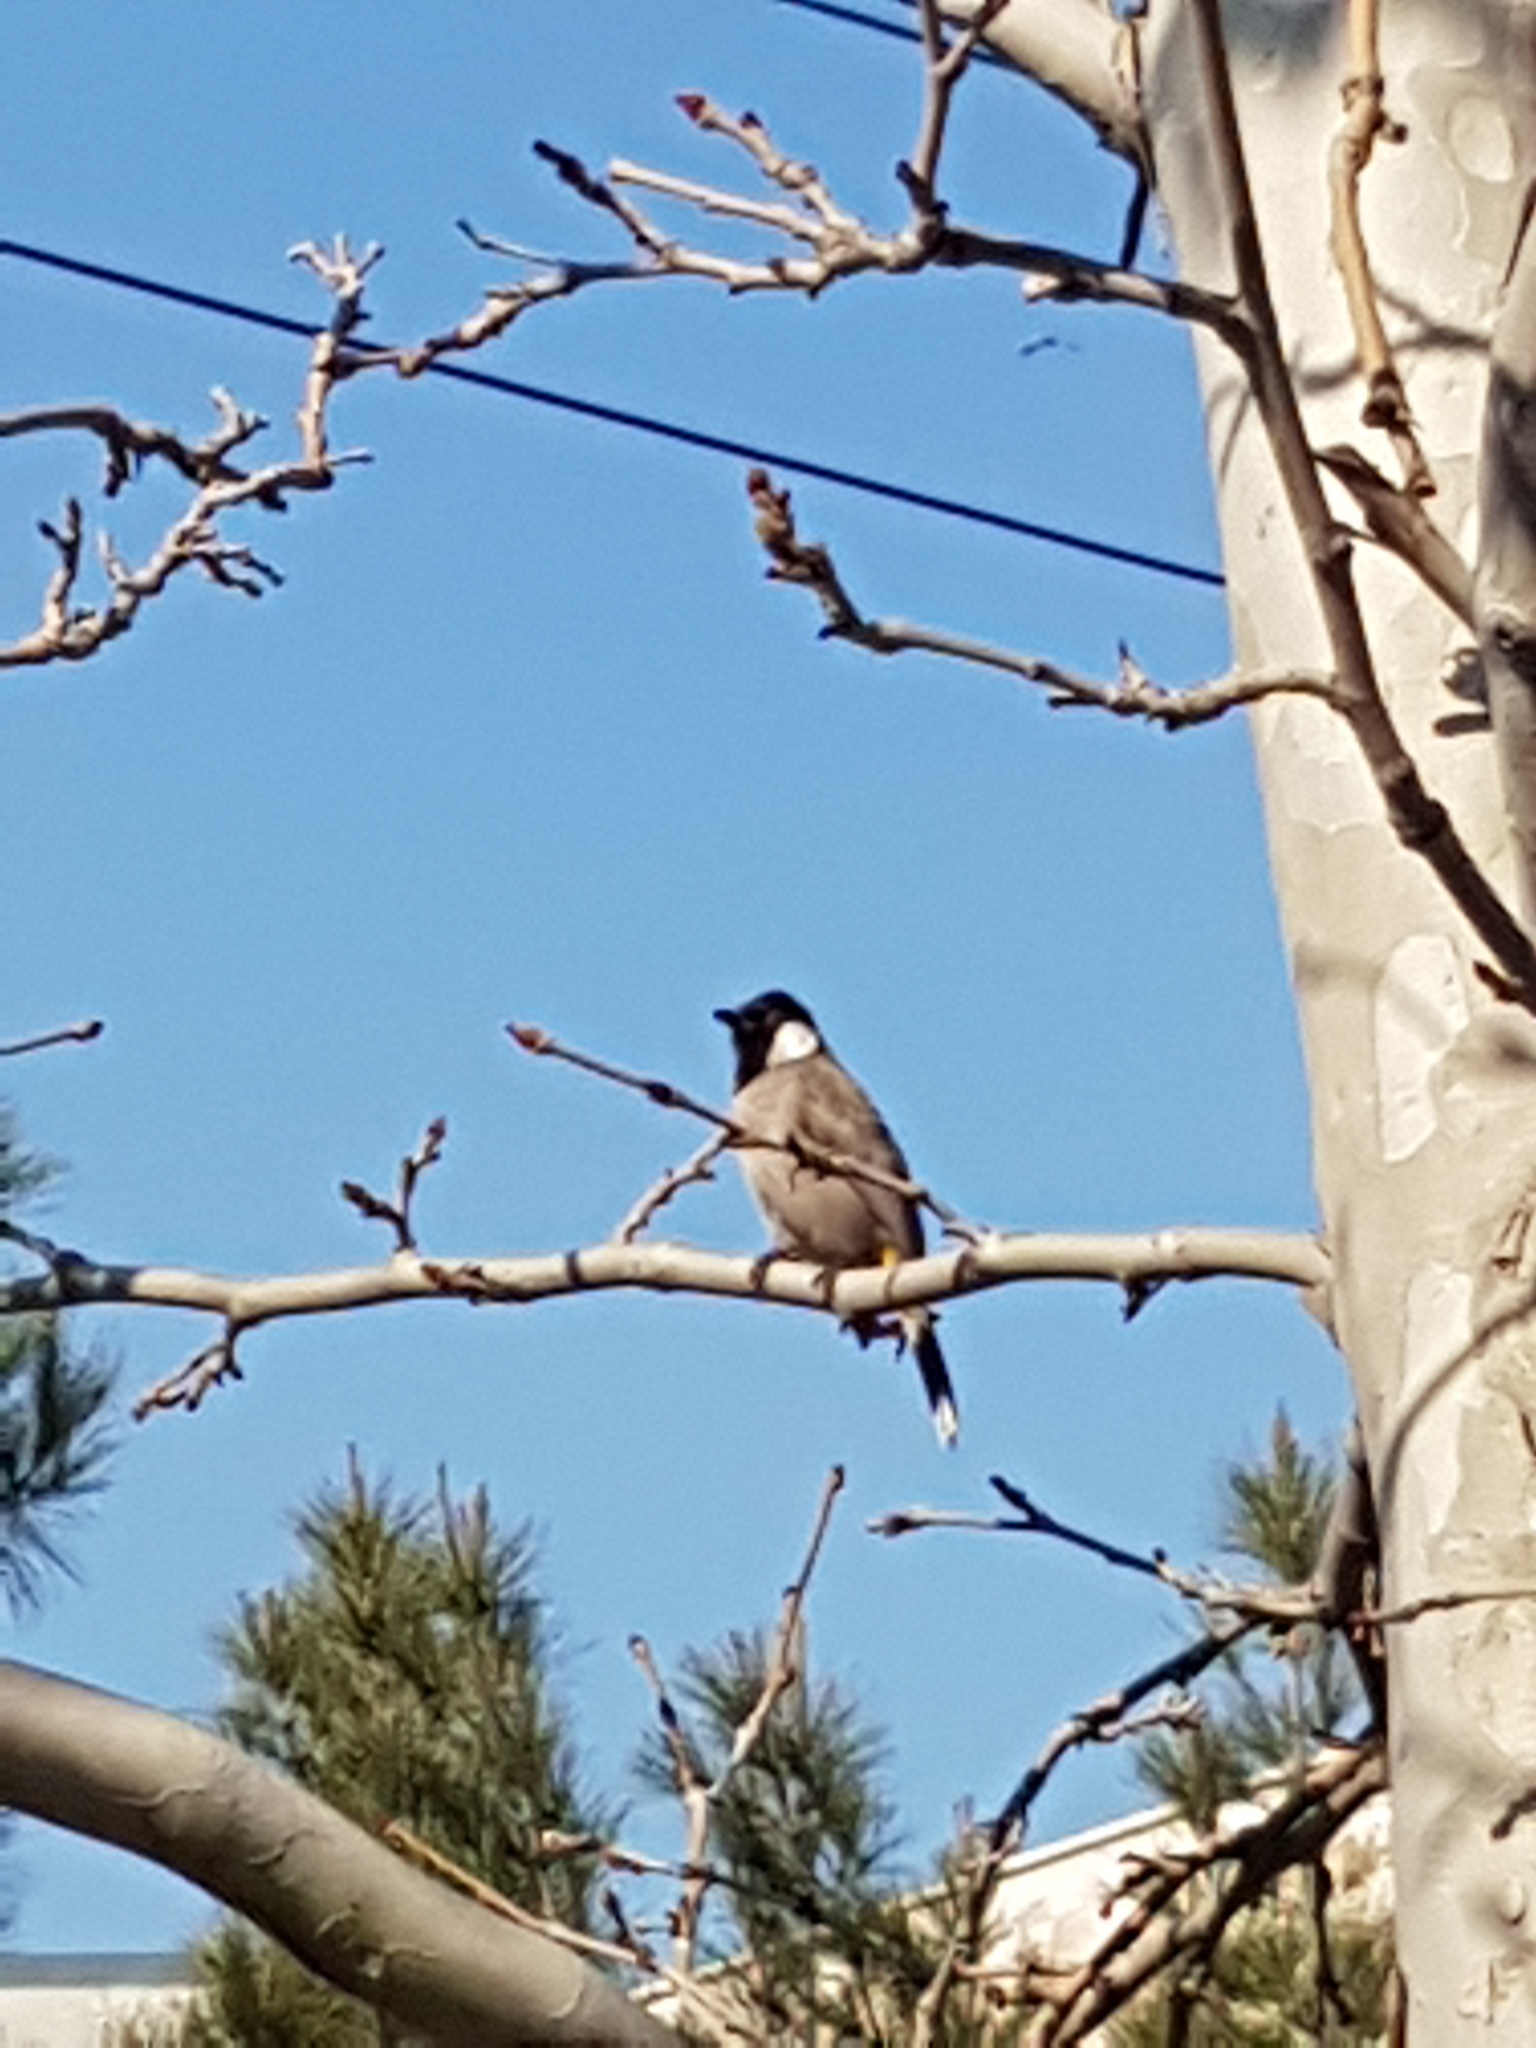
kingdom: Animalia
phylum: Chordata
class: Aves
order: Passeriformes
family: Pycnonotidae
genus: Pycnonotus
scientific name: Pycnonotus leucotis
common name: White-eared bulbul
